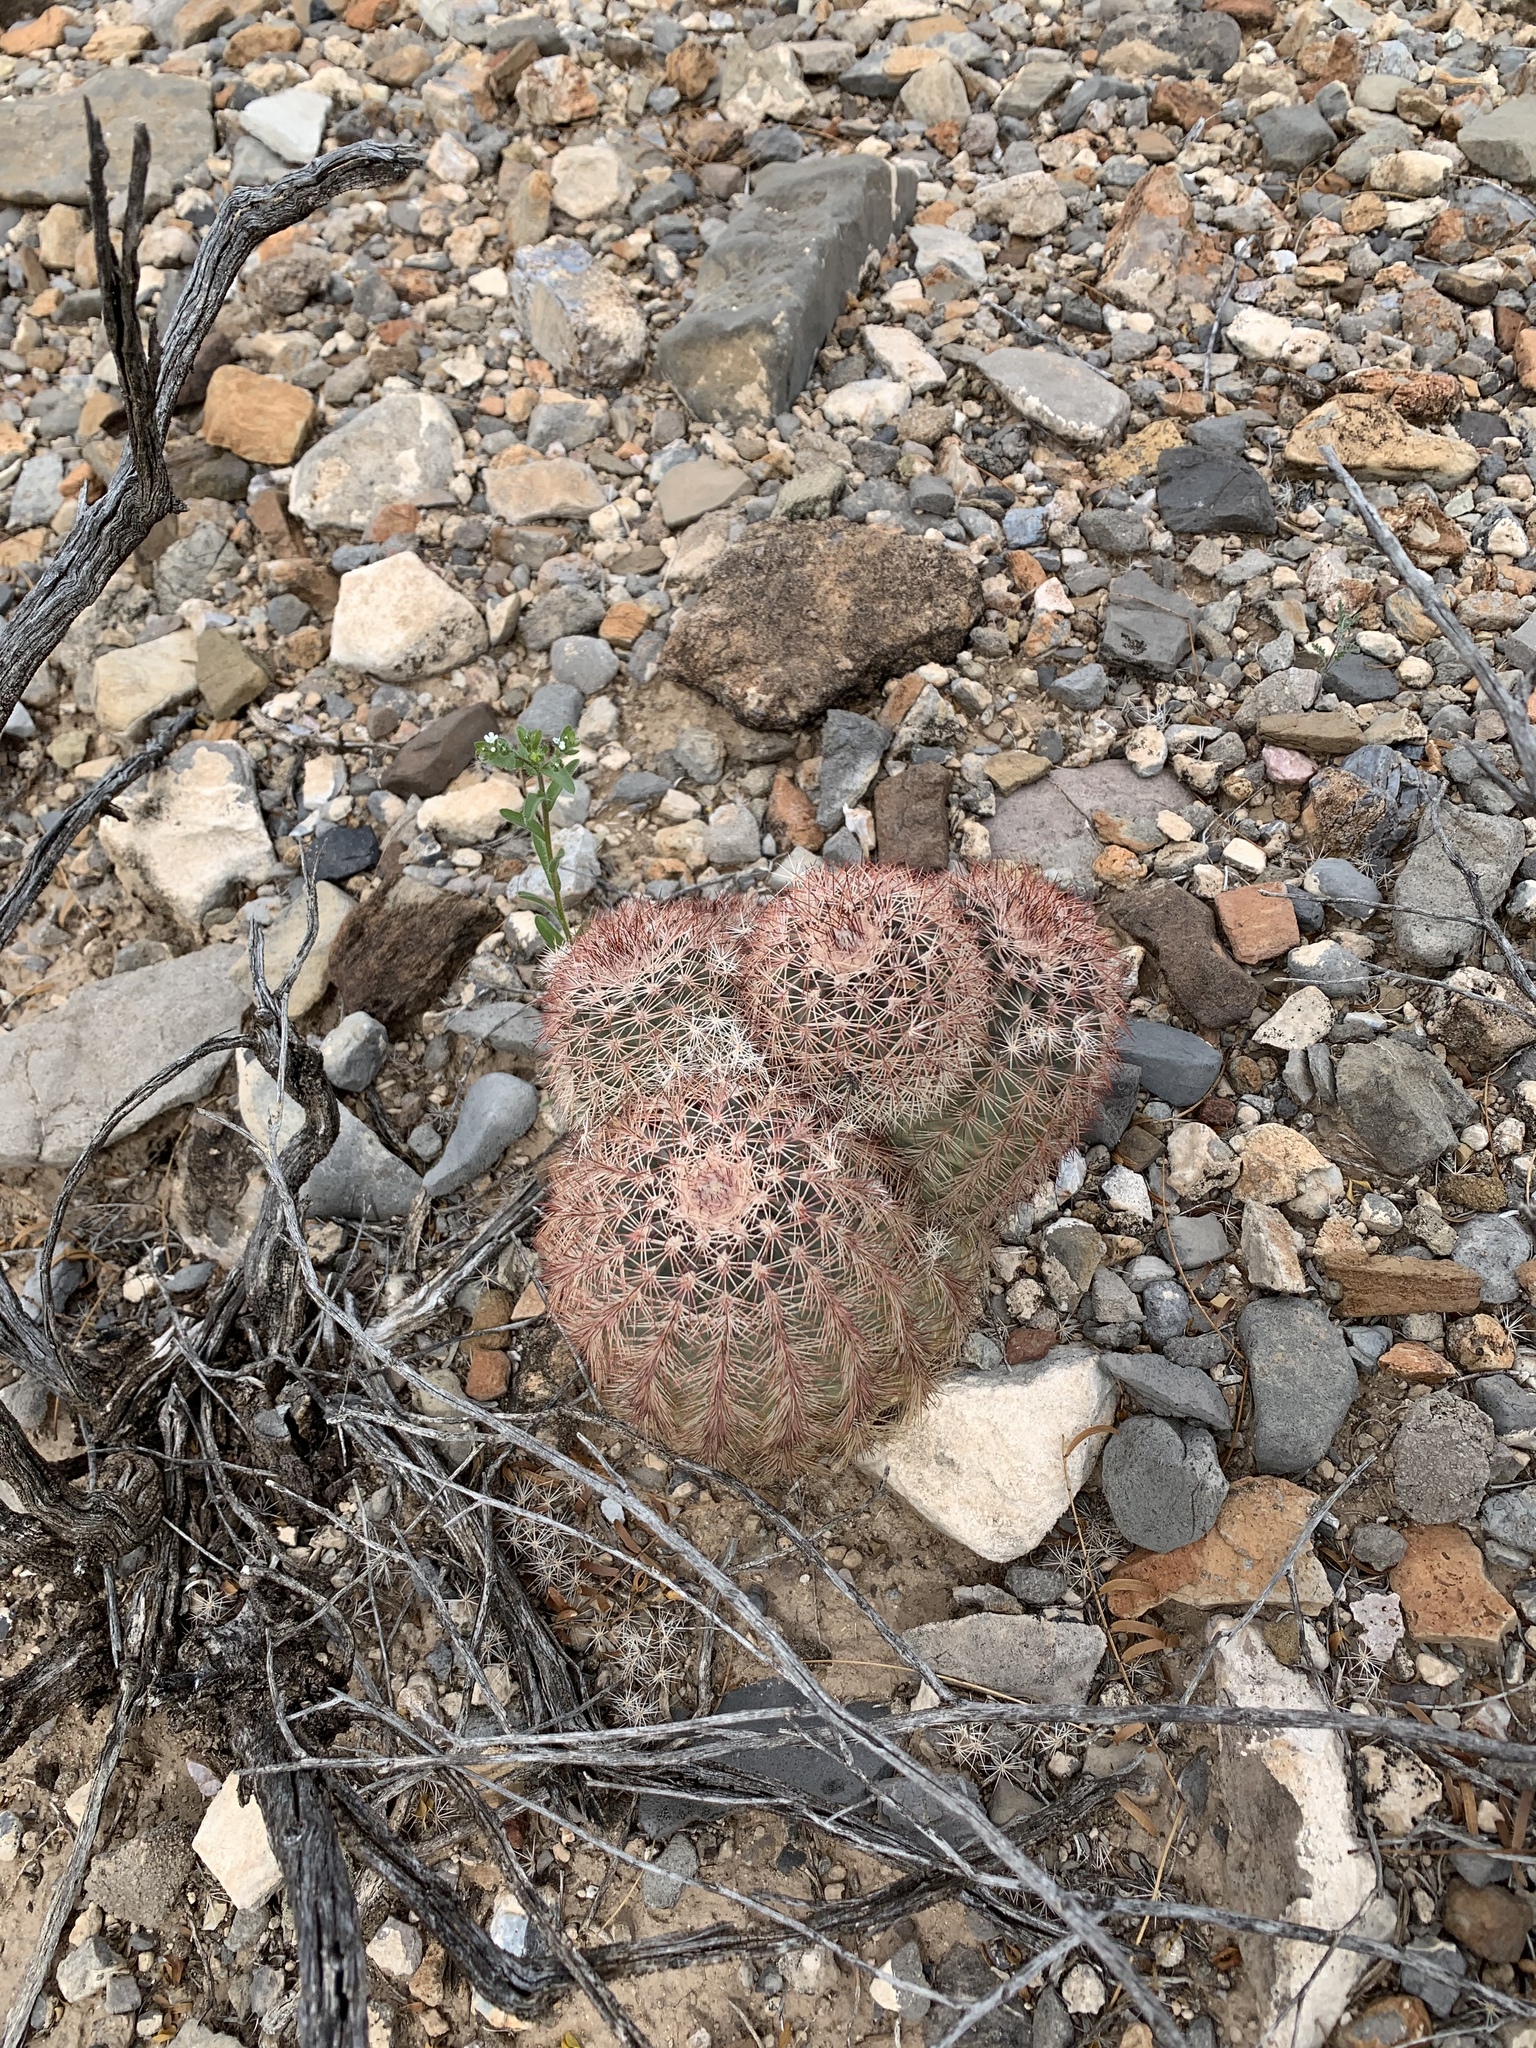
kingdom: Plantae
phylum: Tracheophyta
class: Magnoliopsida
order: Caryophyllales
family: Cactaceae
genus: Echinocereus
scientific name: Echinocereus dasyacanthus
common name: Spiny hedgehog cactus
